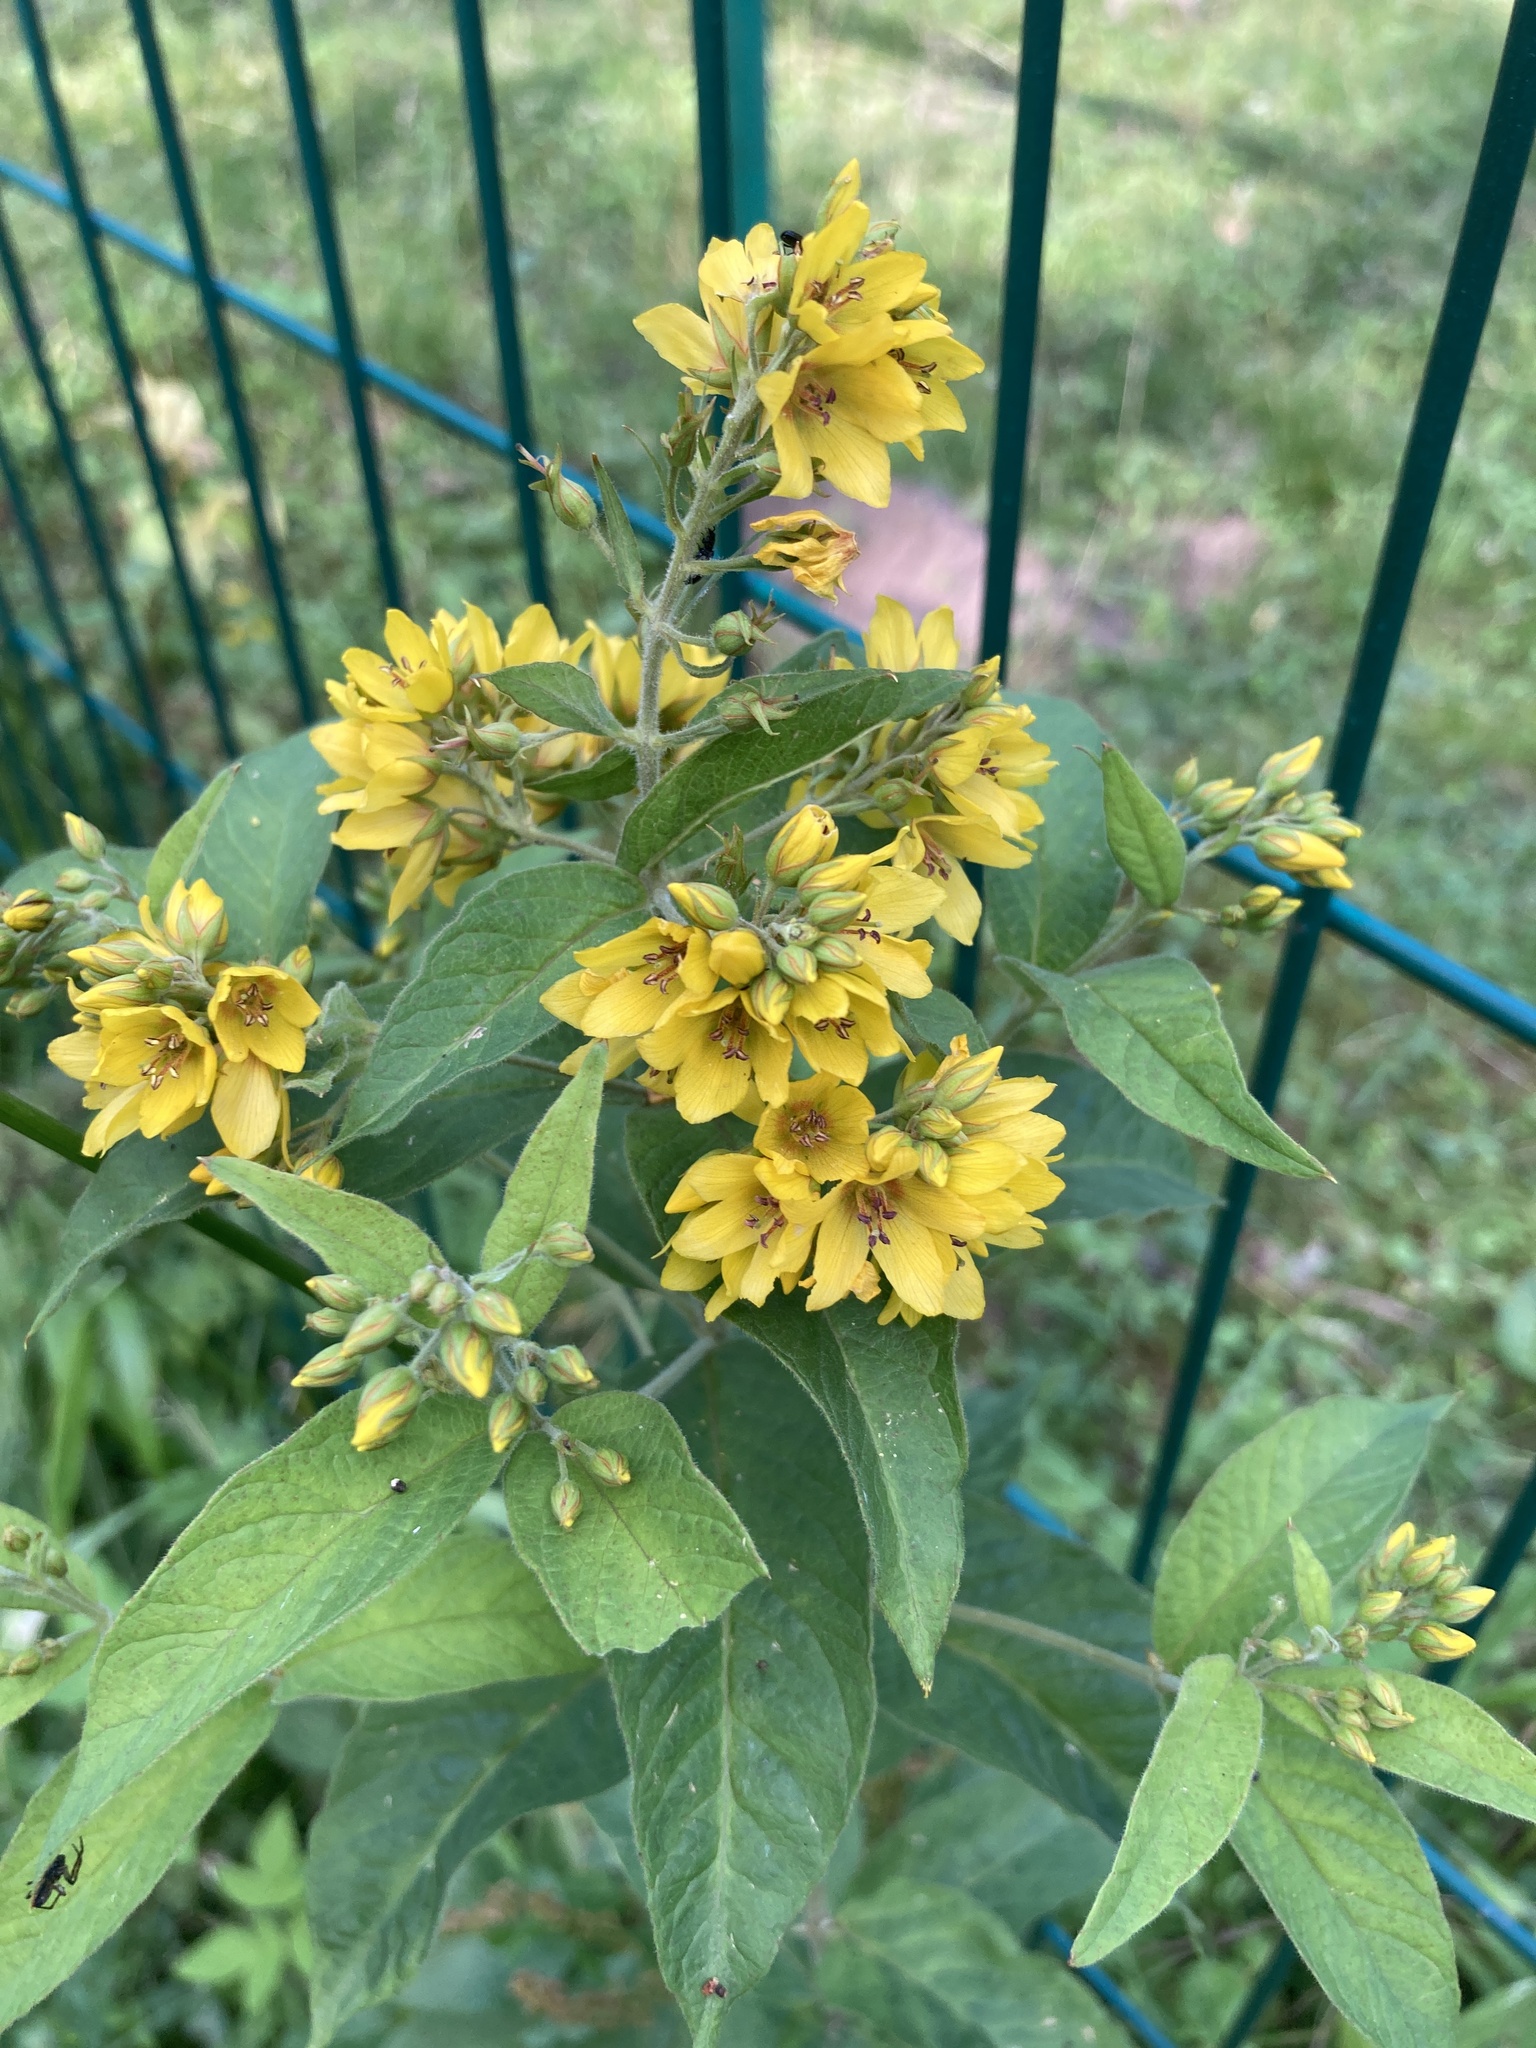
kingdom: Plantae
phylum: Tracheophyta
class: Magnoliopsida
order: Ericales
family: Primulaceae
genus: Lysimachia
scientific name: Lysimachia vulgaris
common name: Yellow loosestrife
